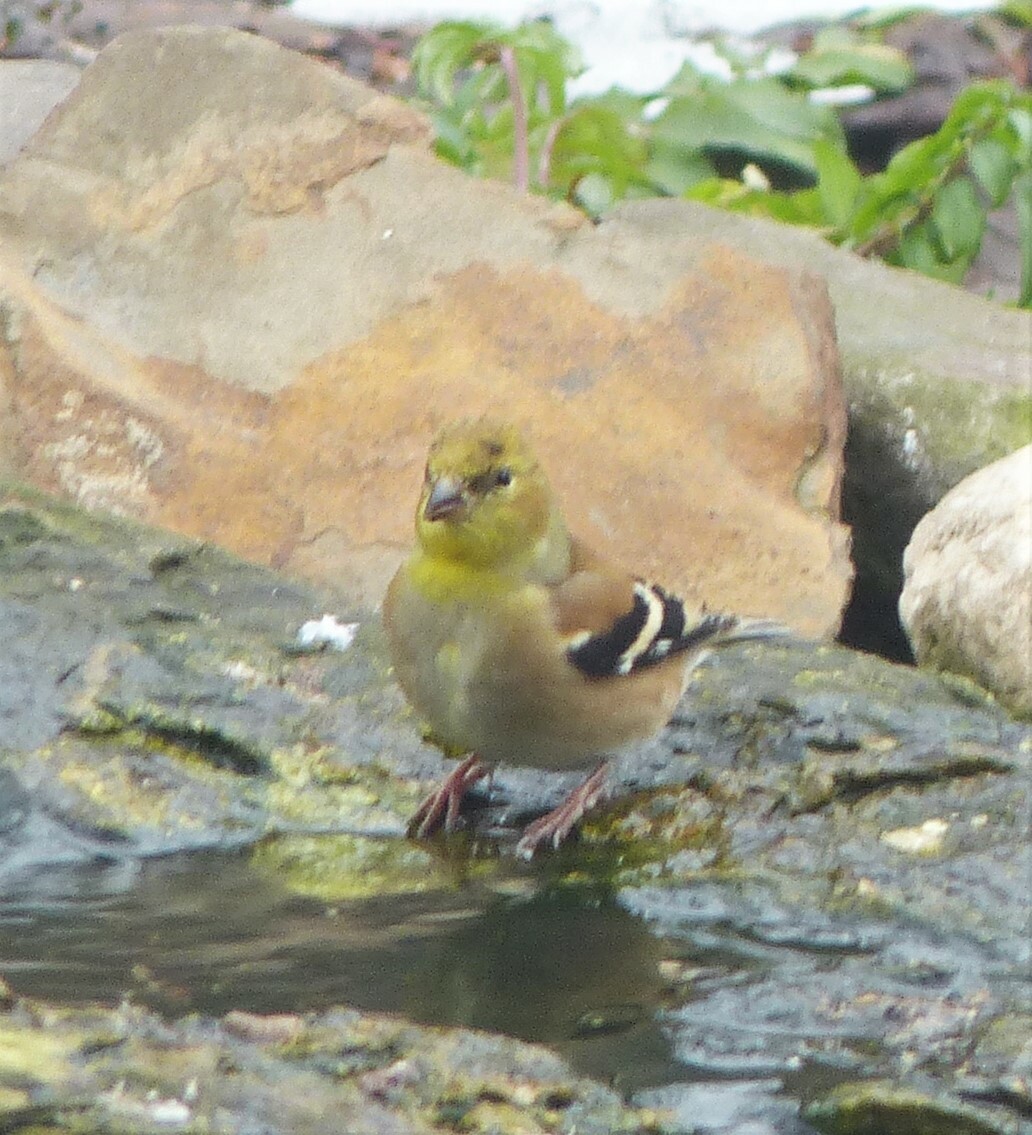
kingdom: Animalia
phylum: Chordata
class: Aves
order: Passeriformes
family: Fringillidae
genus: Spinus
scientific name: Spinus tristis
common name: American goldfinch
